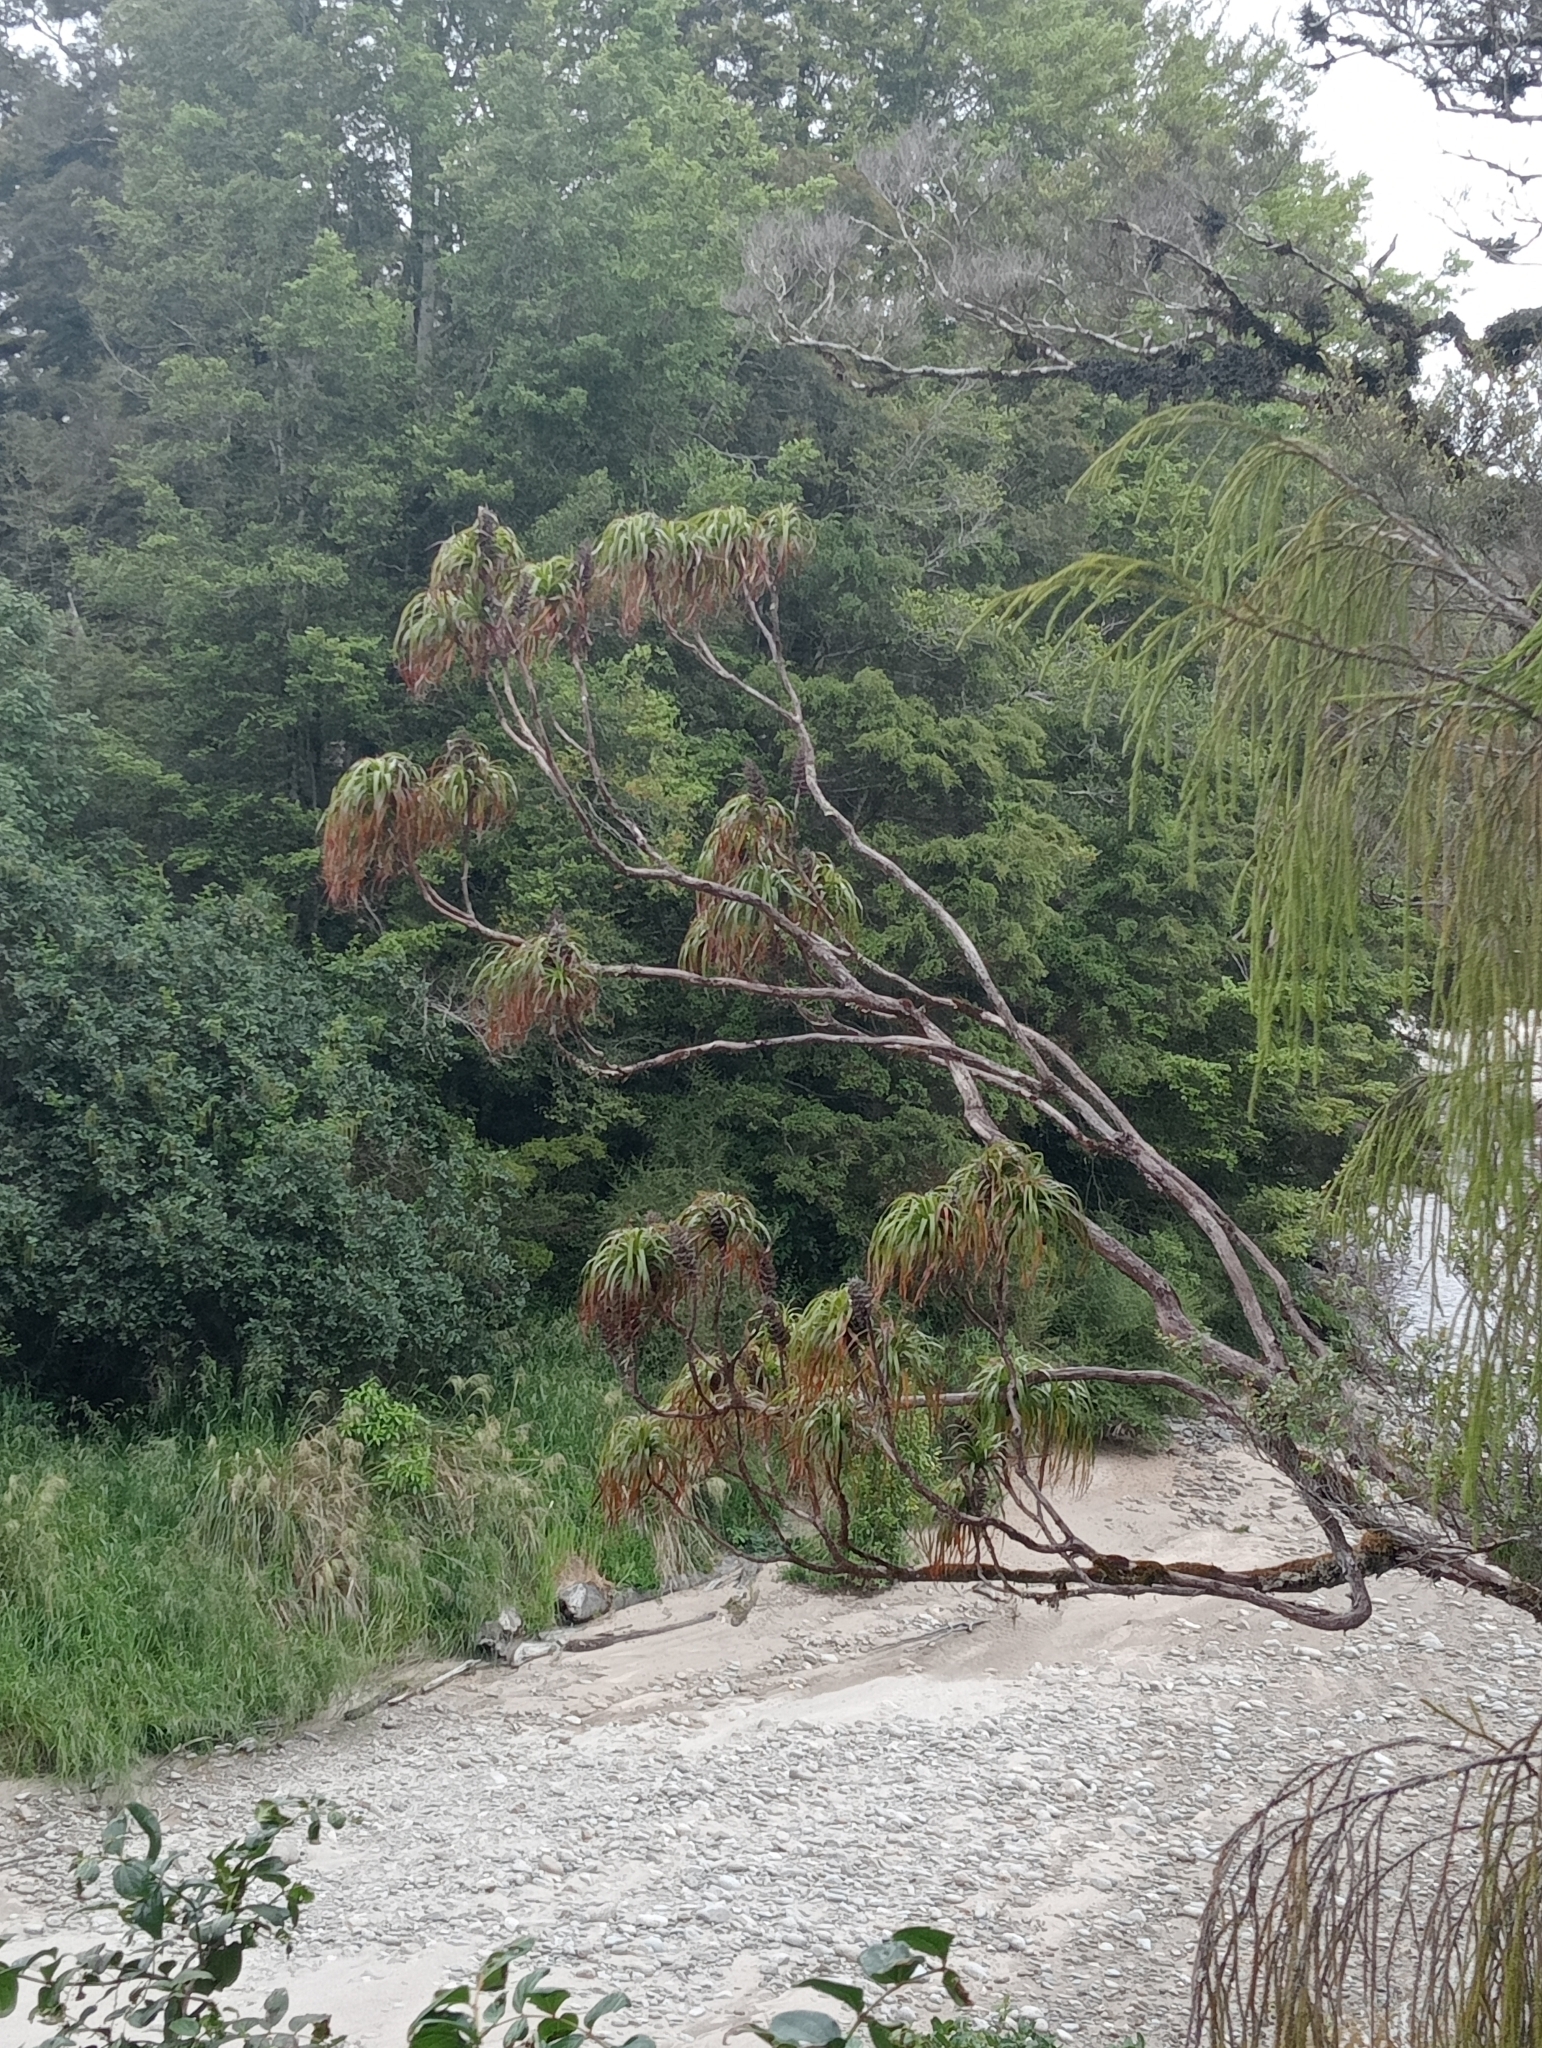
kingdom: Plantae
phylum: Tracheophyta
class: Magnoliopsida
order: Ericales
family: Ericaceae
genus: Dracophyllum
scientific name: Dracophyllum elegantissimum
